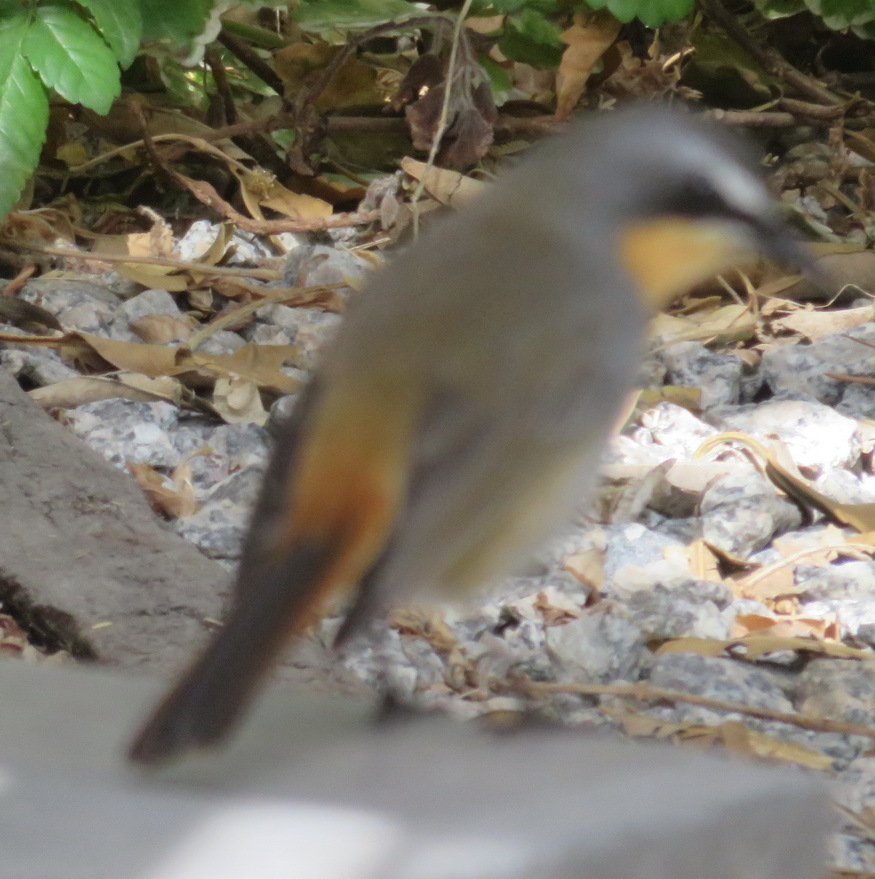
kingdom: Animalia
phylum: Chordata
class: Aves
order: Passeriformes
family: Muscicapidae
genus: Cossypha
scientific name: Cossypha caffra
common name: Cape robin-chat
